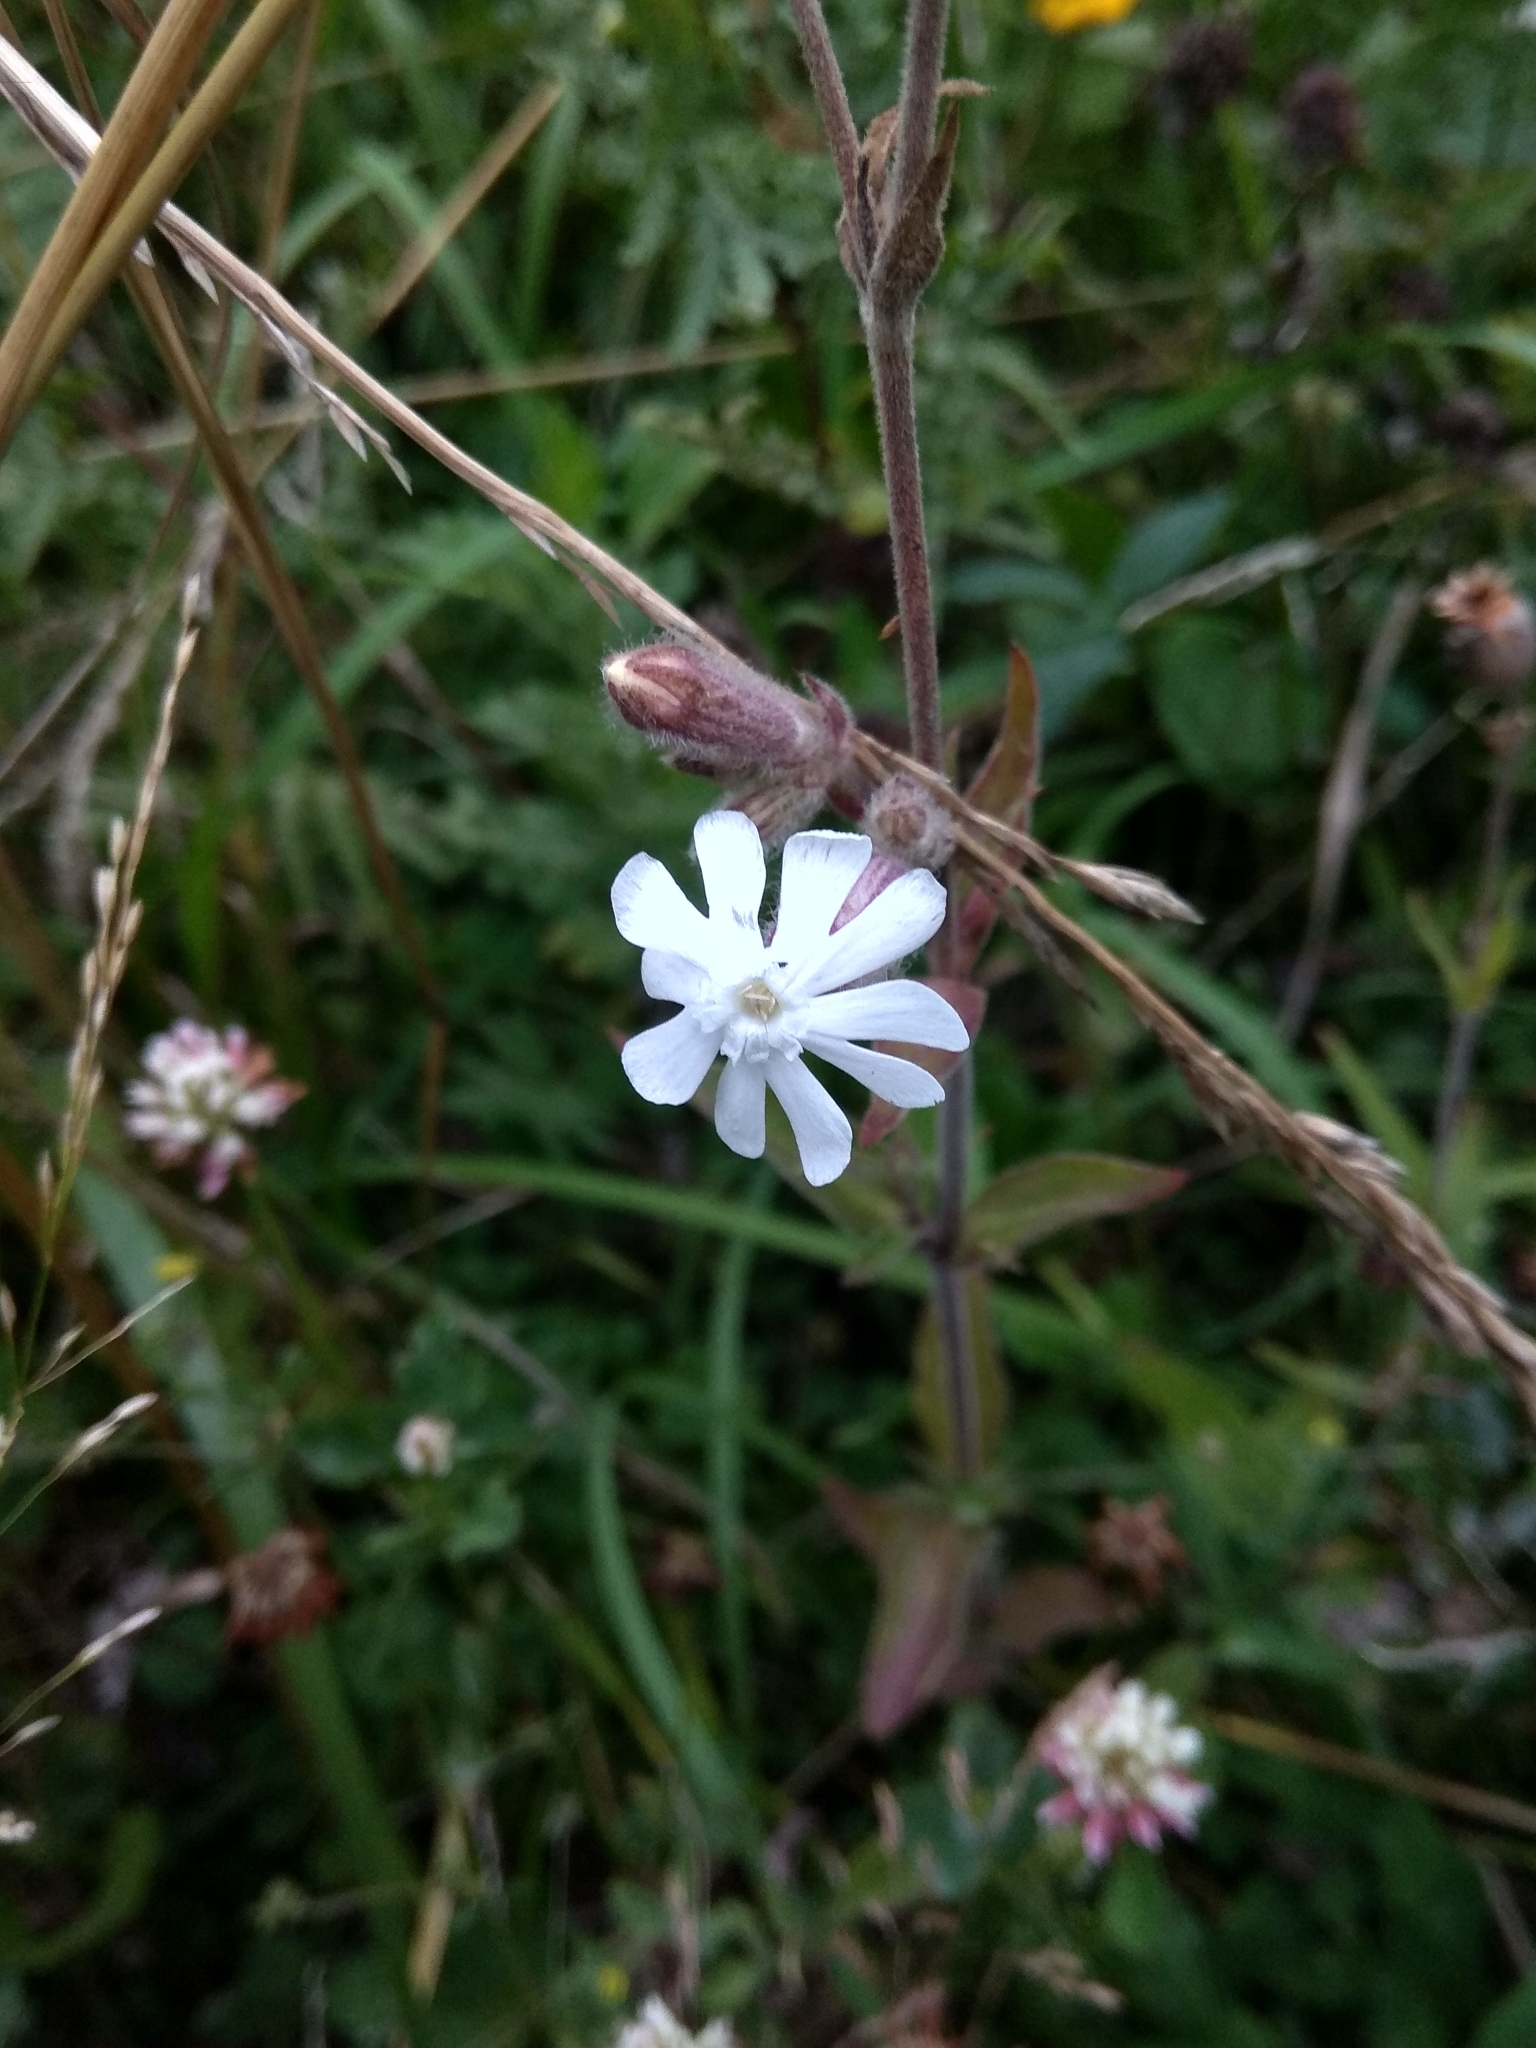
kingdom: Plantae
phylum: Tracheophyta
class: Magnoliopsida
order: Caryophyllales
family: Caryophyllaceae
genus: Silene
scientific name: Silene latifolia
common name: White campion
